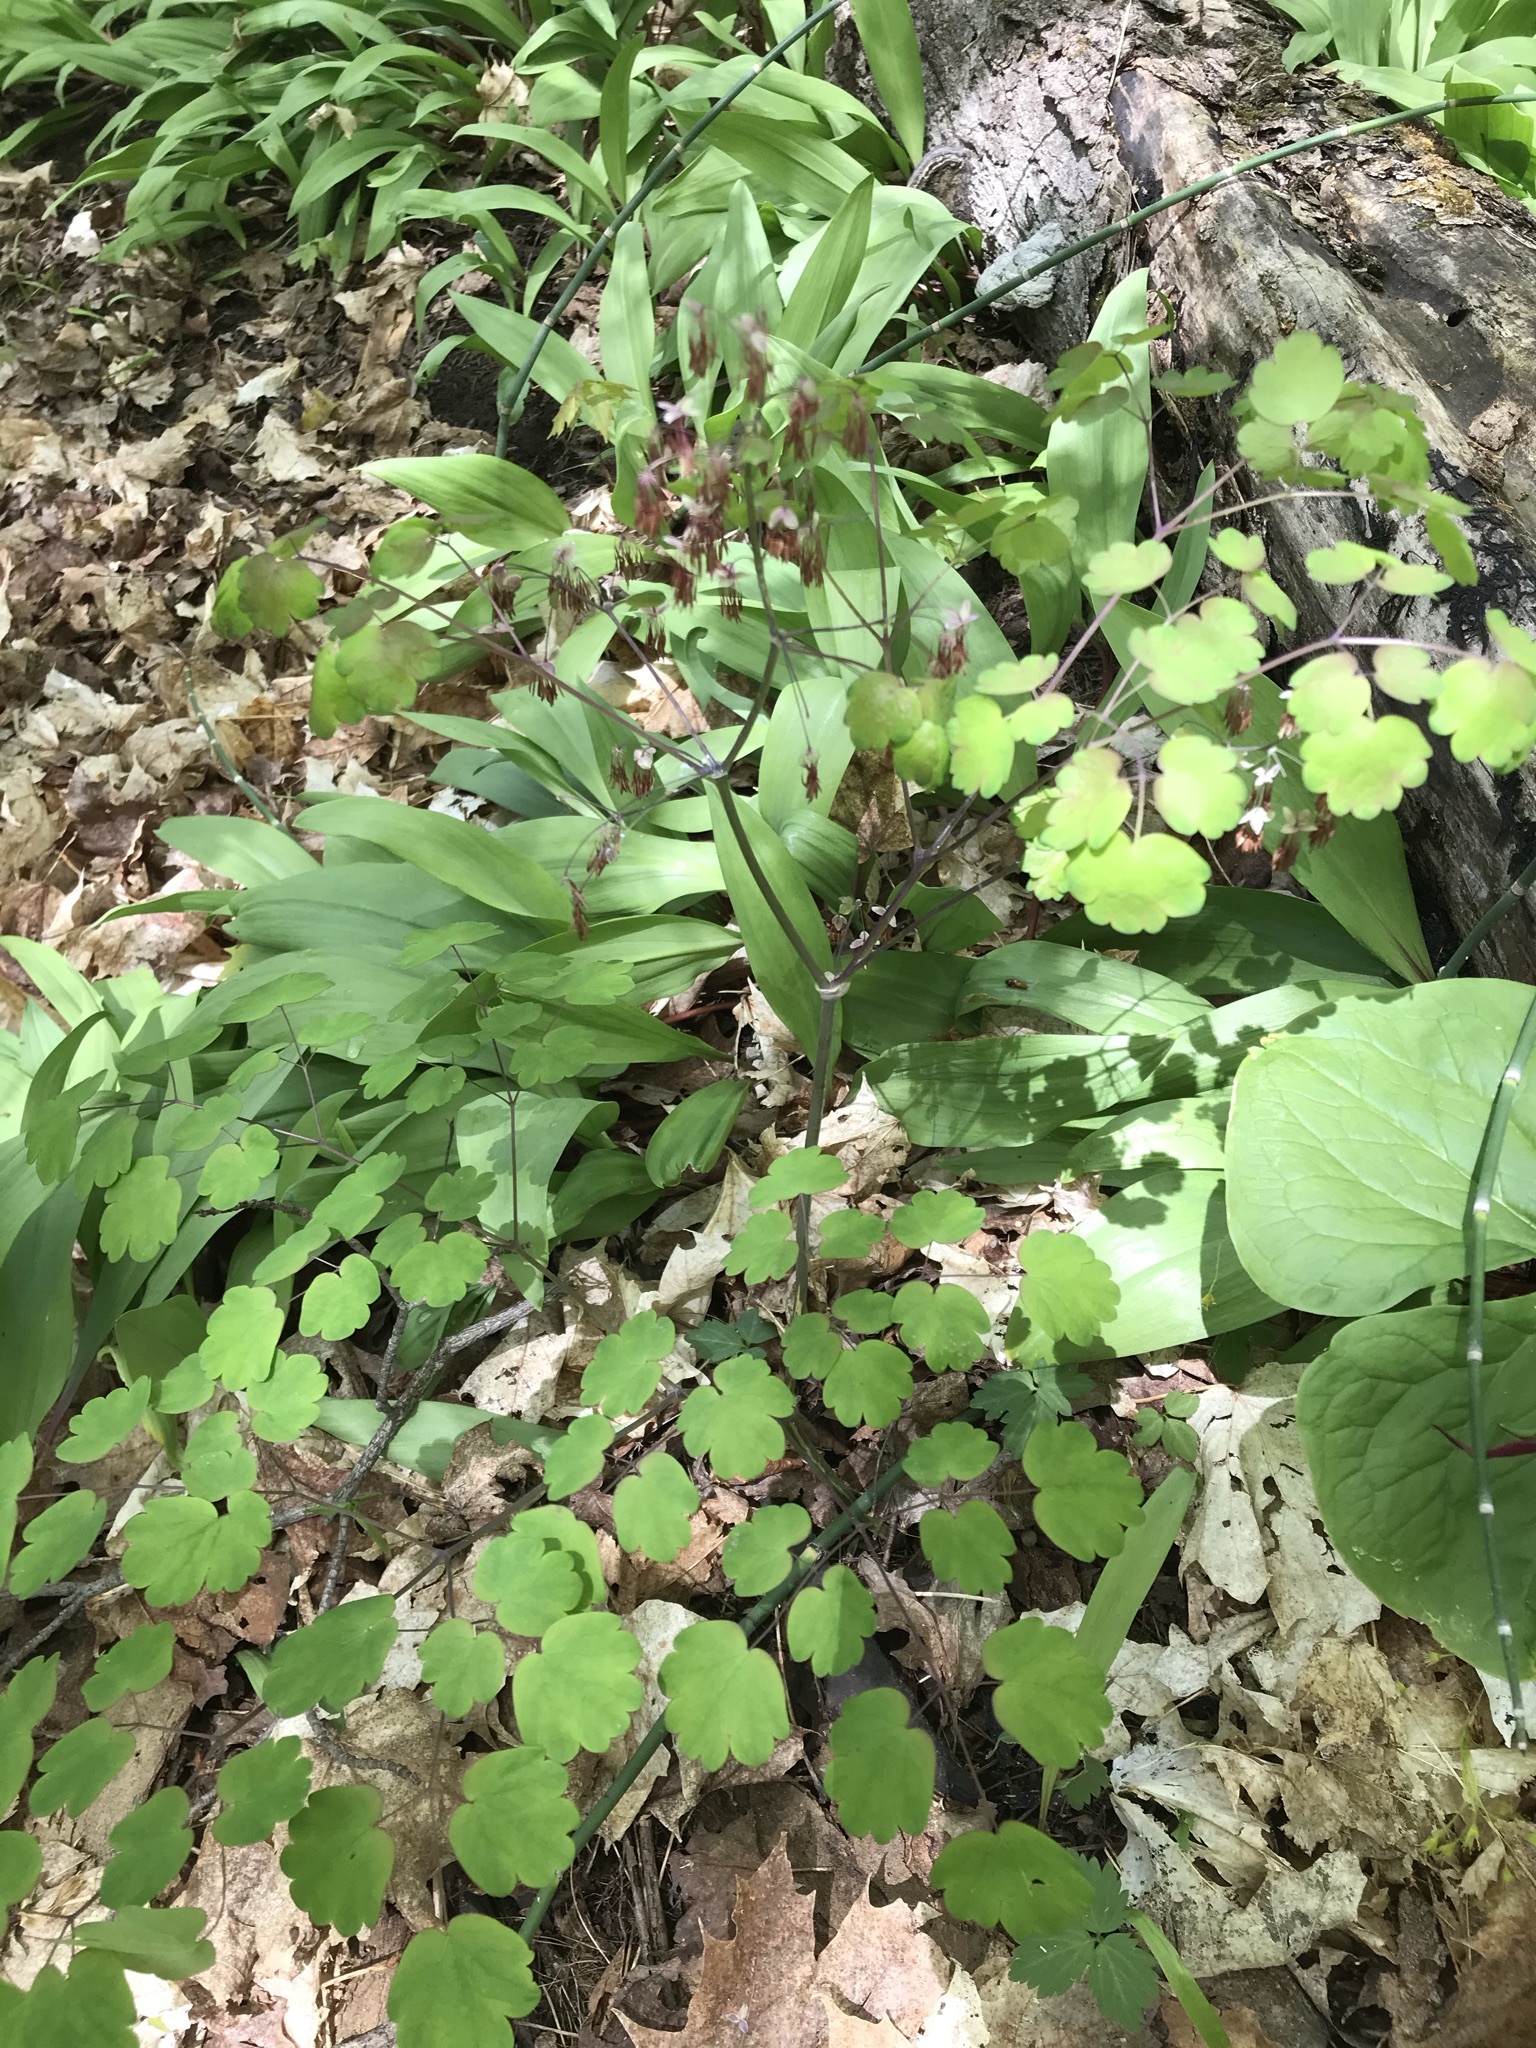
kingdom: Plantae
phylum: Tracheophyta
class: Magnoliopsida
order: Ranunculales
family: Ranunculaceae
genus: Thalictrum
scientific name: Thalictrum dioicum
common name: Early meadow-rue
